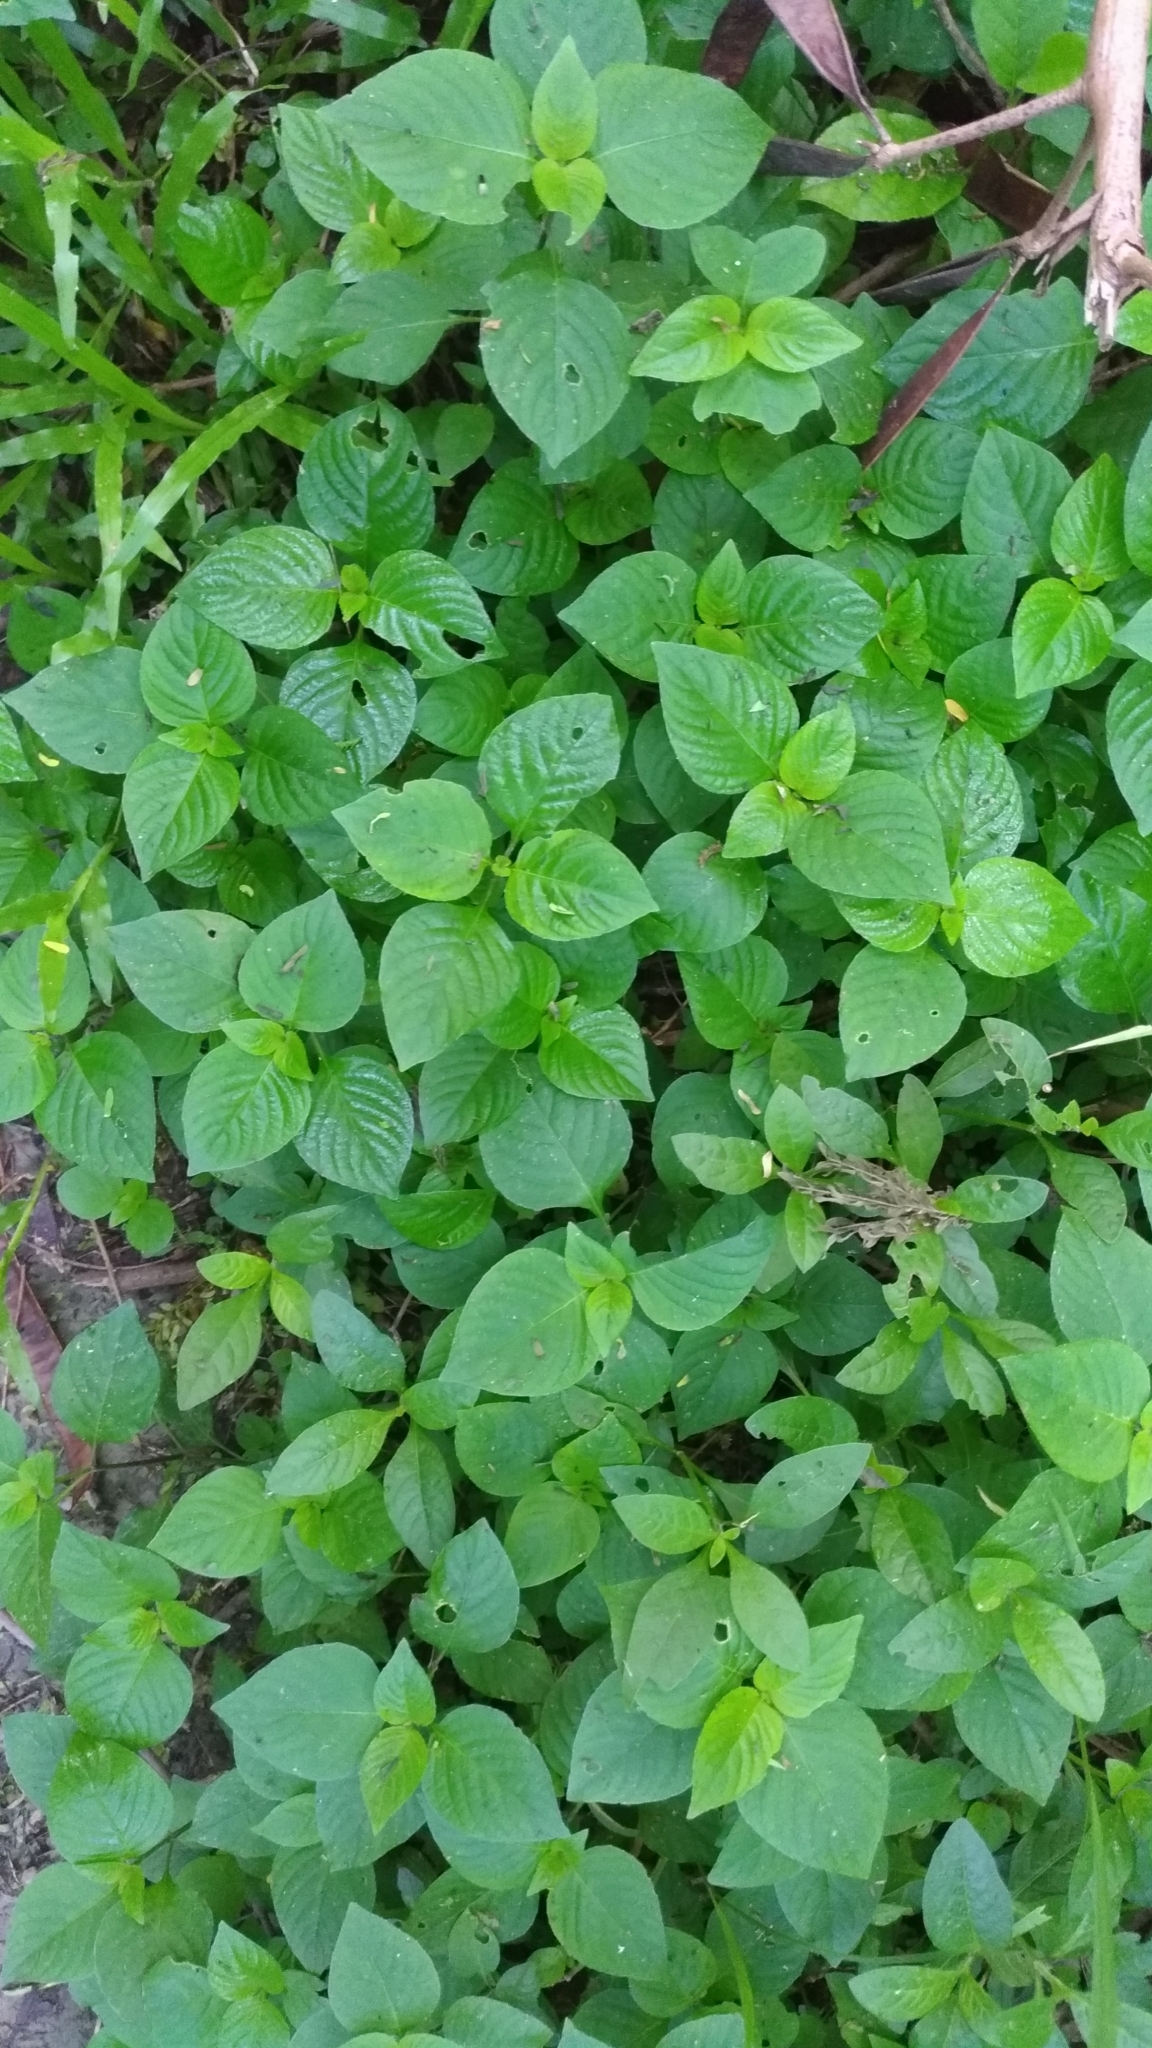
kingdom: Plantae
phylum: Tracheophyta
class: Magnoliopsida
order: Lamiales
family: Acanthaceae
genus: Asystasia
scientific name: Asystasia gangetica
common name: Chinese violet
